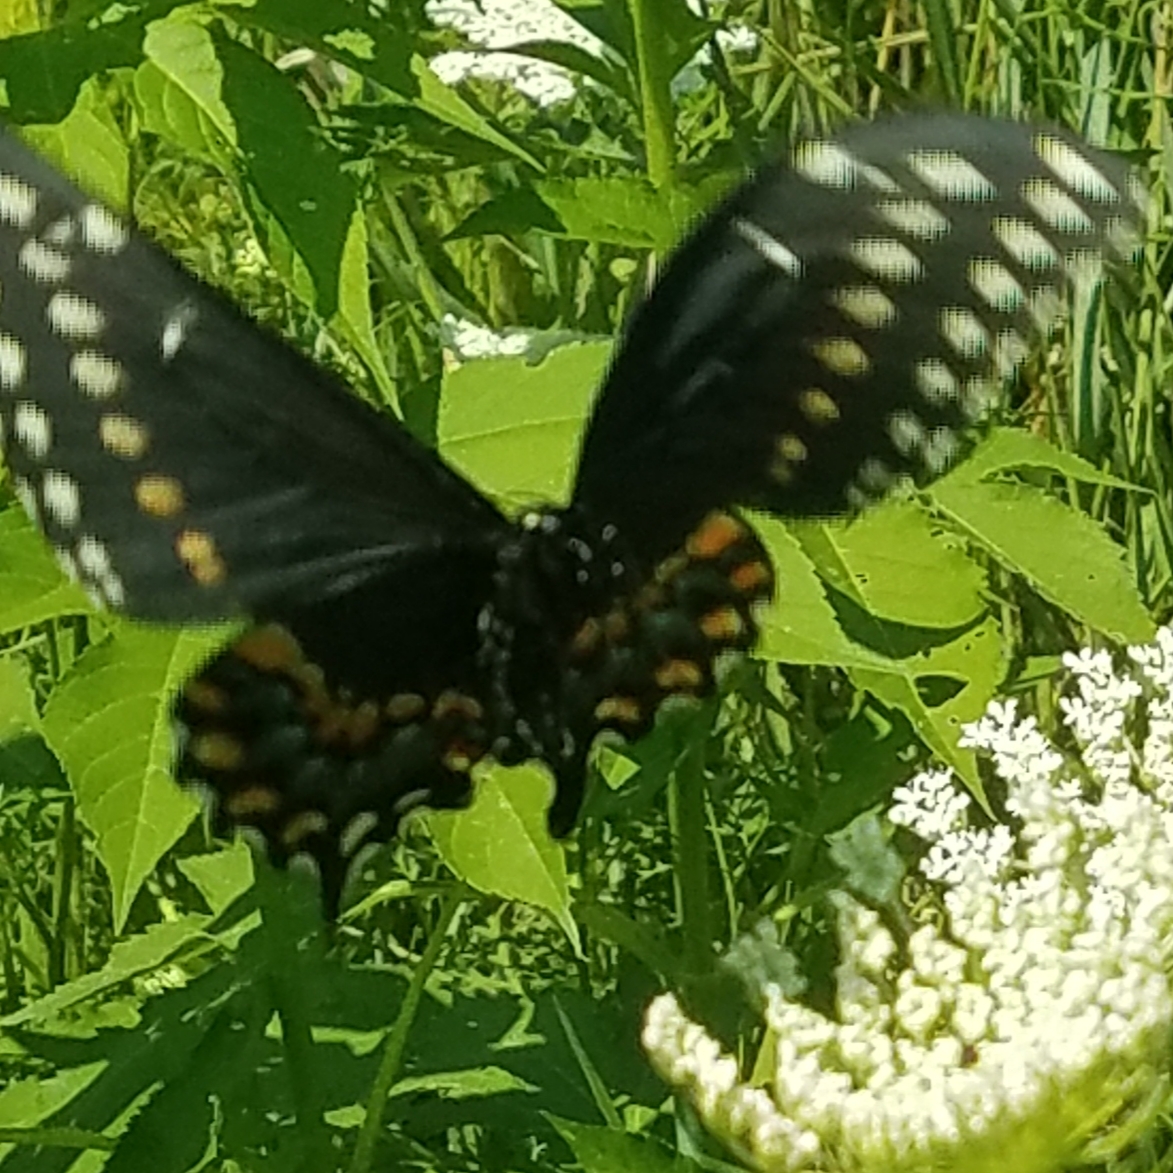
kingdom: Animalia
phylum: Arthropoda
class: Insecta
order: Lepidoptera
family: Papilionidae
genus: Papilio
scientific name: Papilio polyxenes
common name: Black swallowtail
